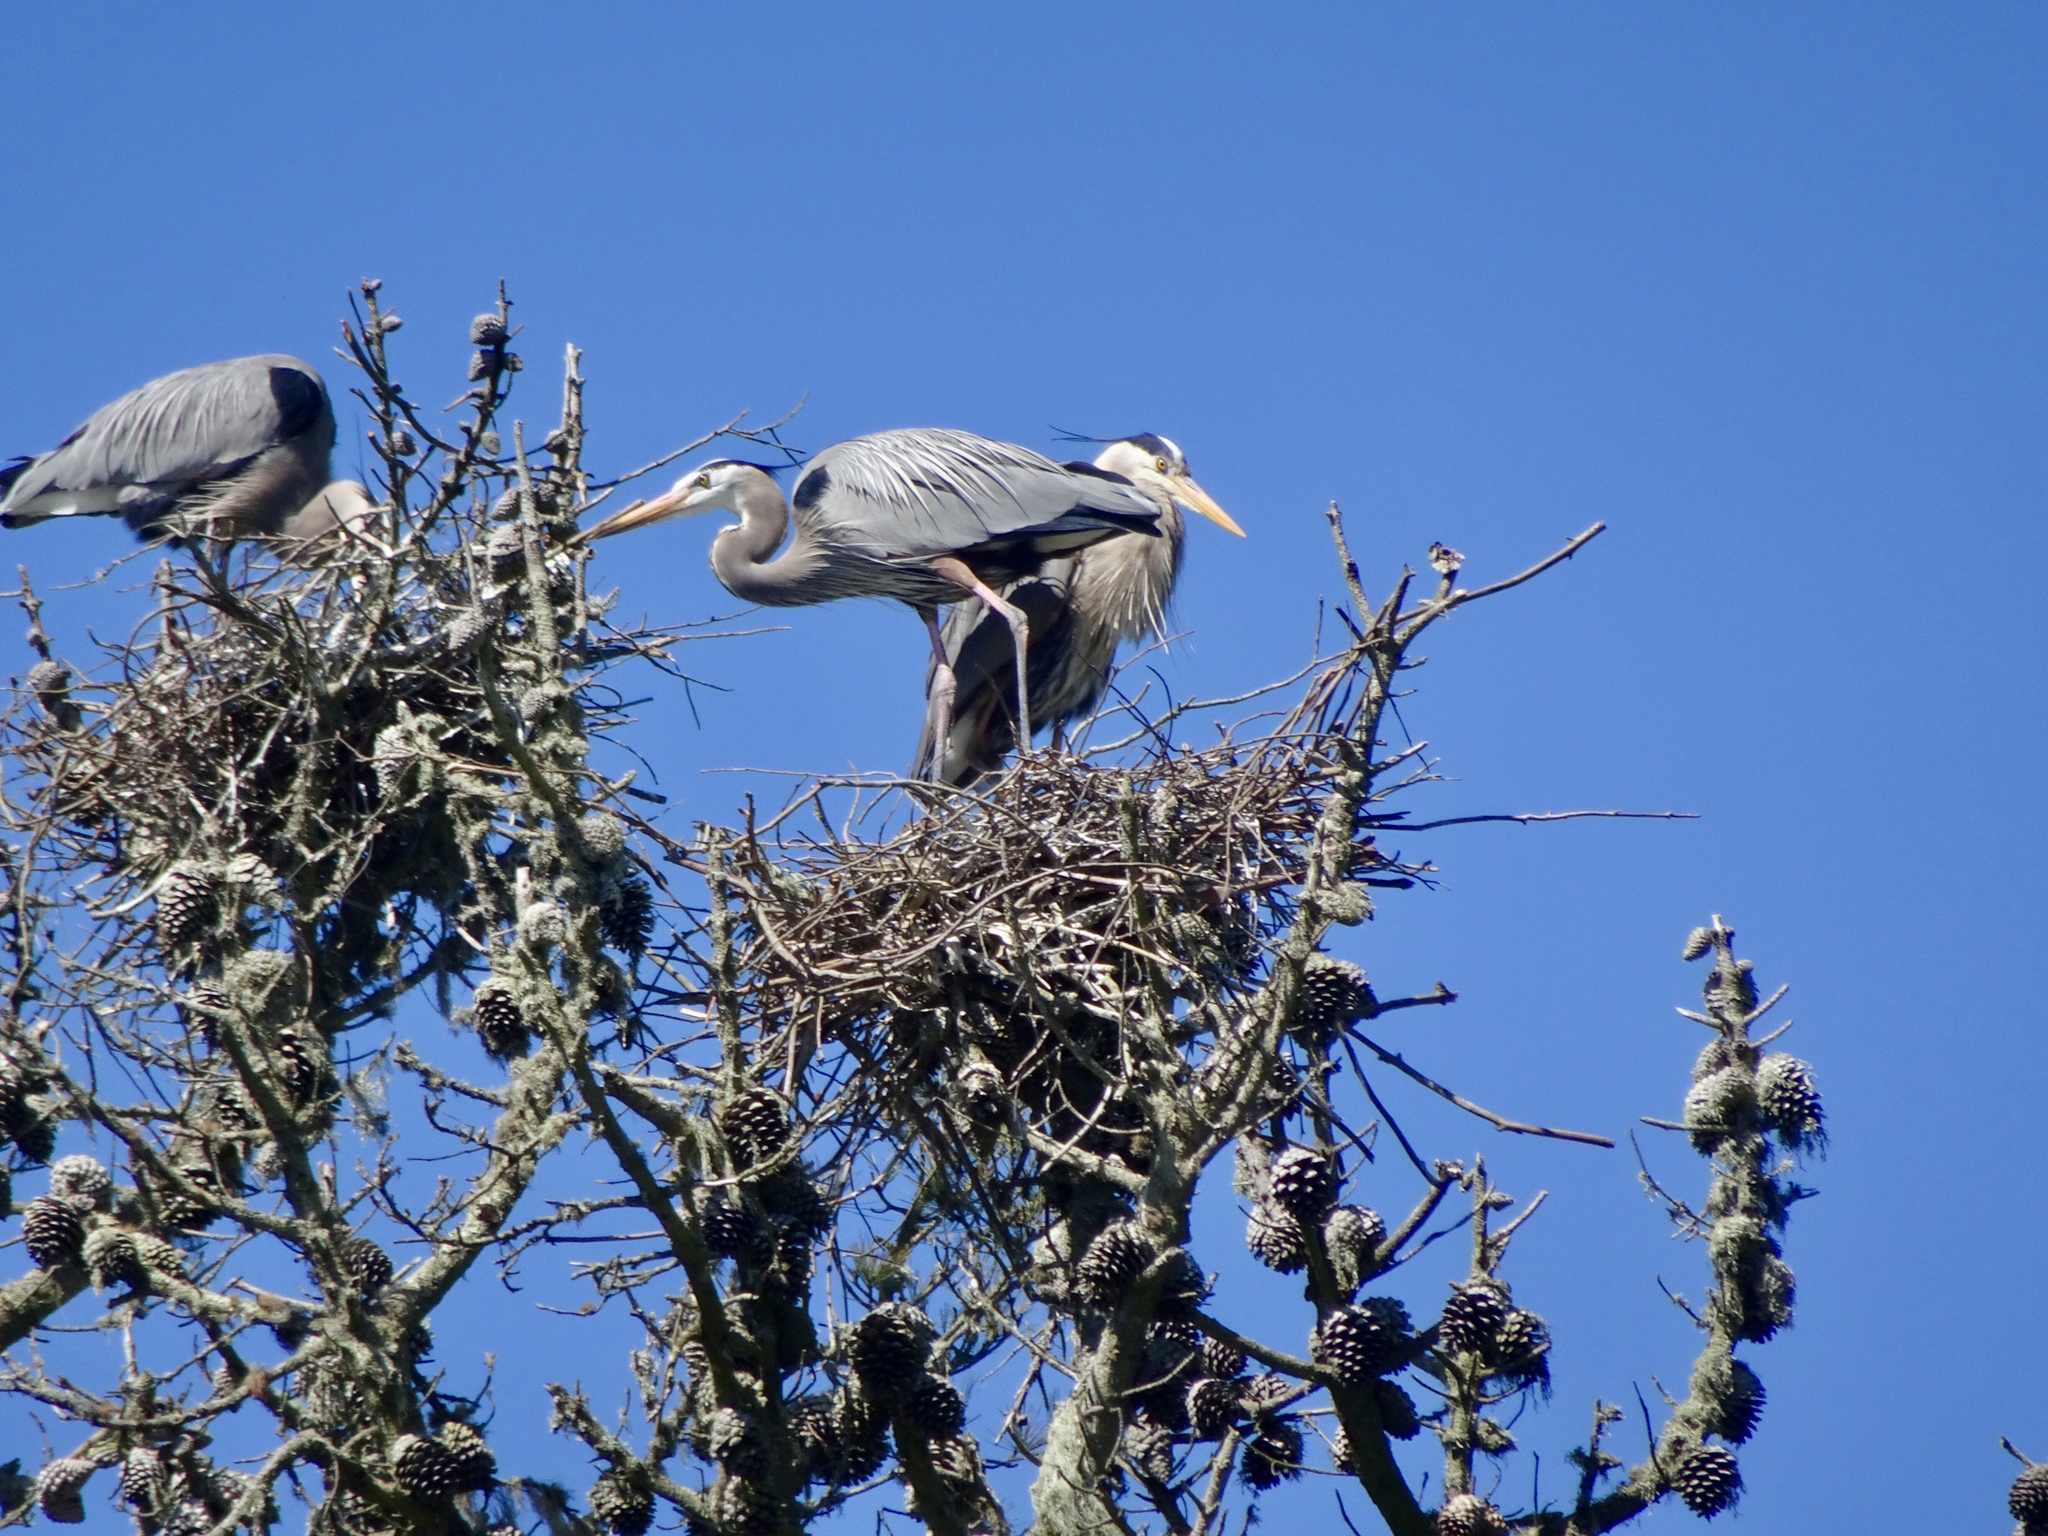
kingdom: Animalia
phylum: Chordata
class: Aves
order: Pelecaniformes
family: Ardeidae
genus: Ardea
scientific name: Ardea herodias
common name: Great blue heron
